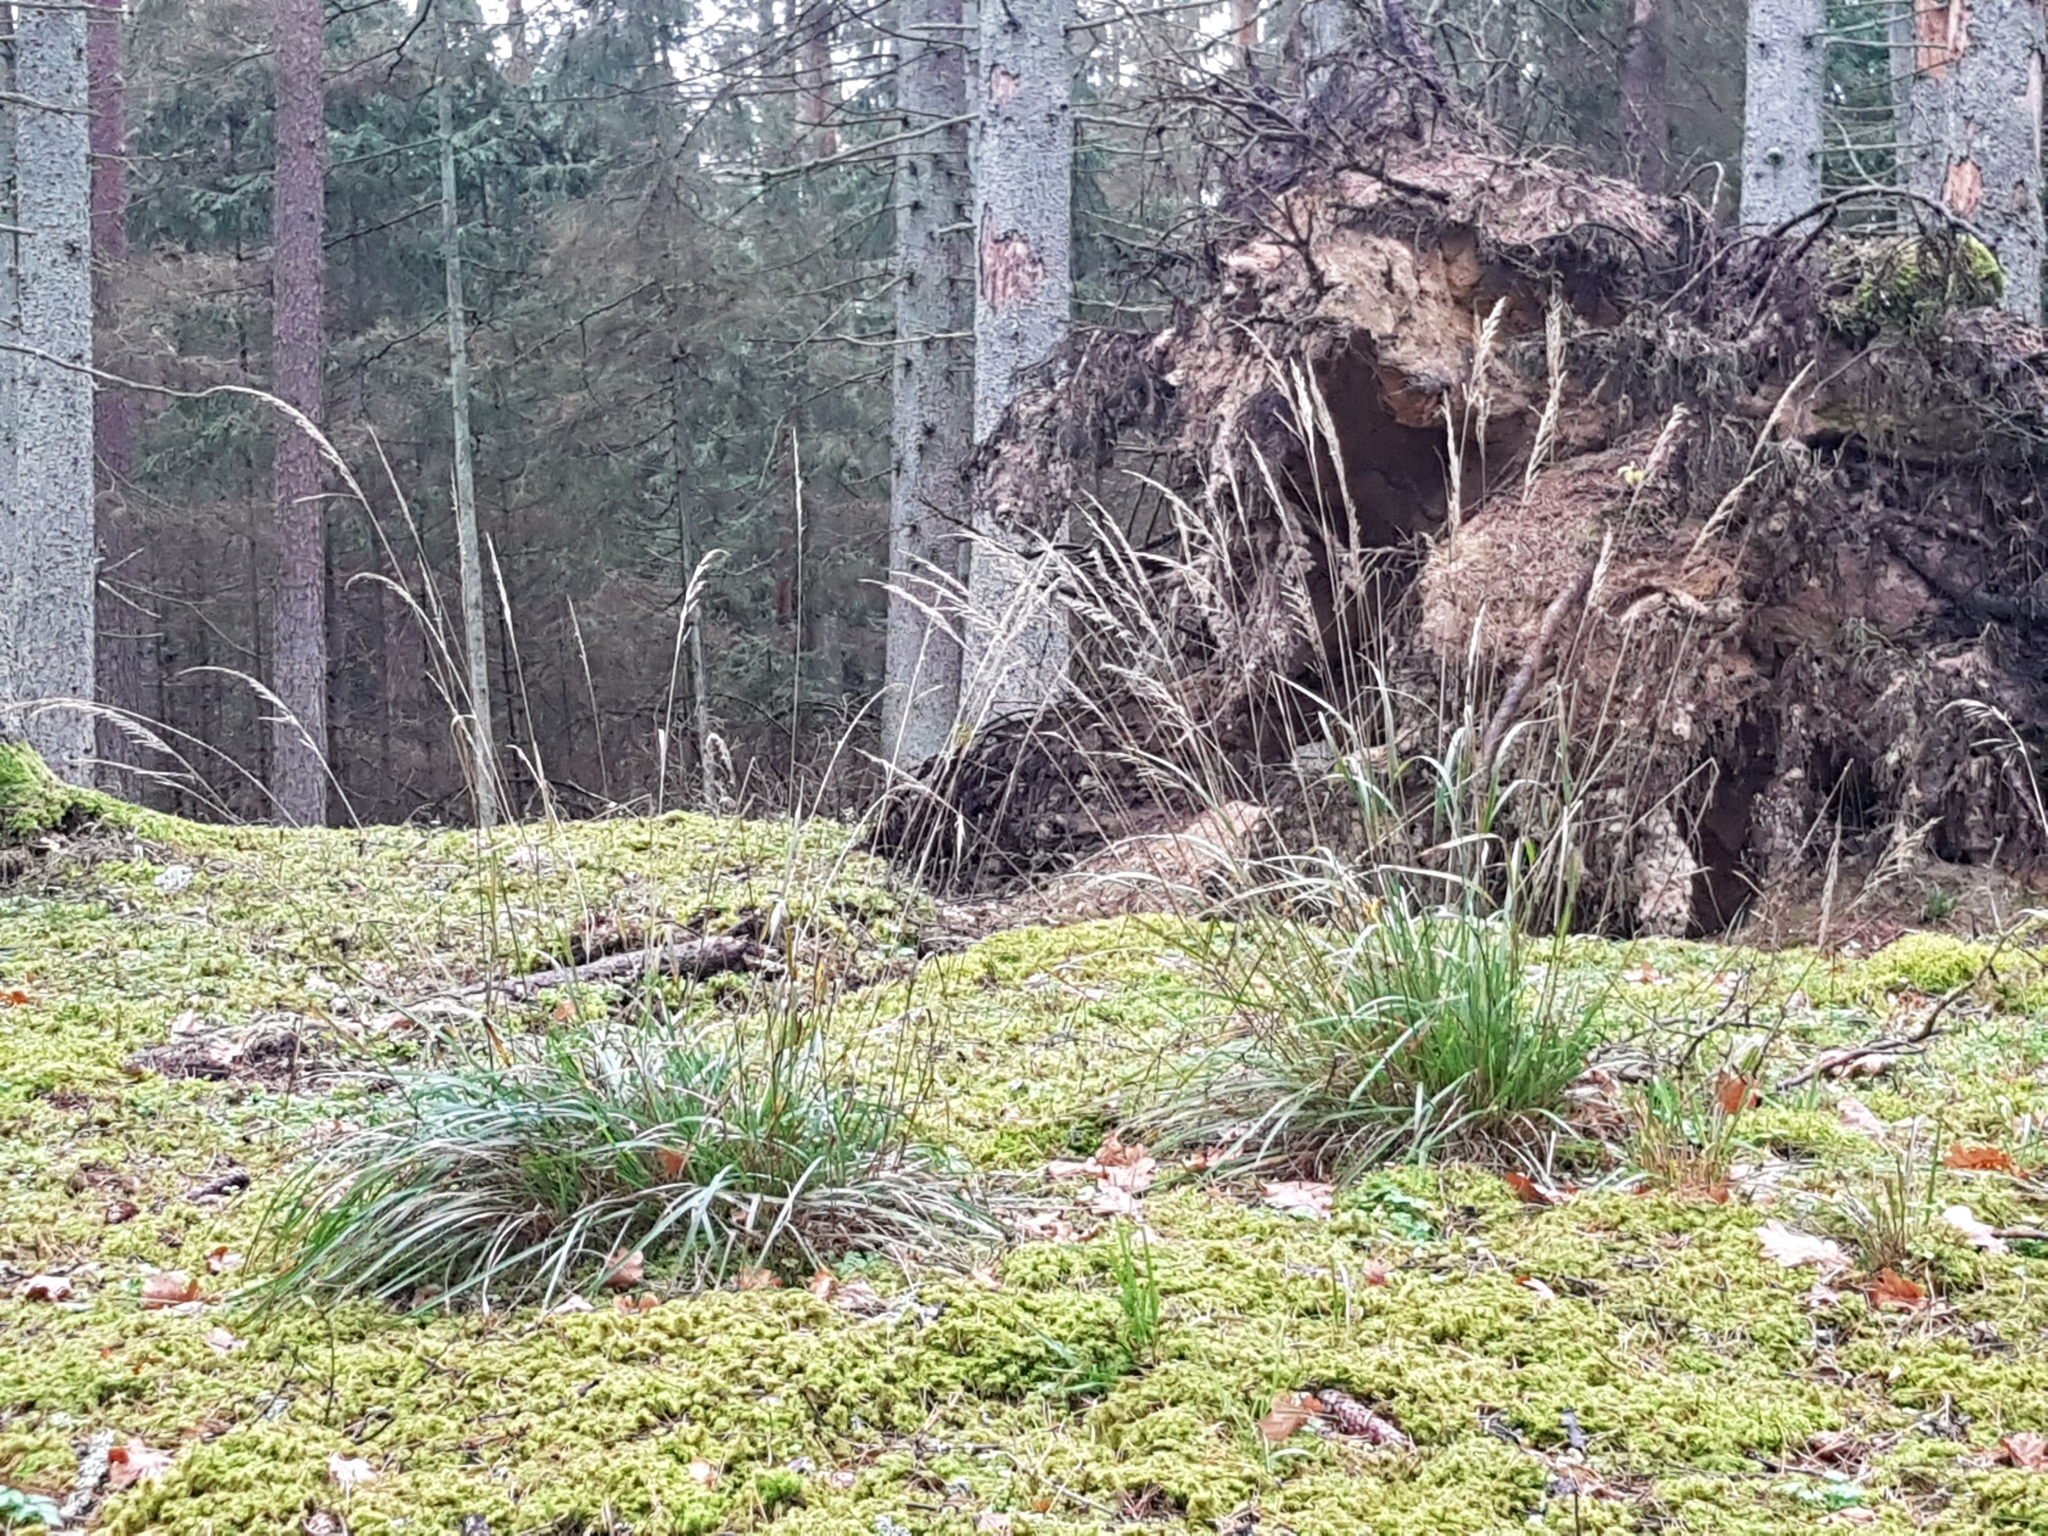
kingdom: Plantae
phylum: Tracheophyta
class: Liliopsida
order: Poales
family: Poaceae
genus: Calamagrostis
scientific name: Calamagrostis arundinacea
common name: Metskastik
